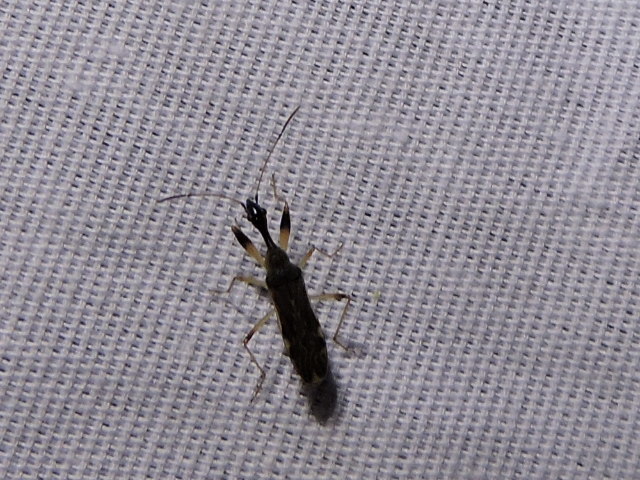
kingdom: Animalia
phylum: Arthropoda
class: Insecta
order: Hemiptera
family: Rhyparochromidae
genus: Myodocha
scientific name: Myodocha serripes
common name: Long-necked seed bug
